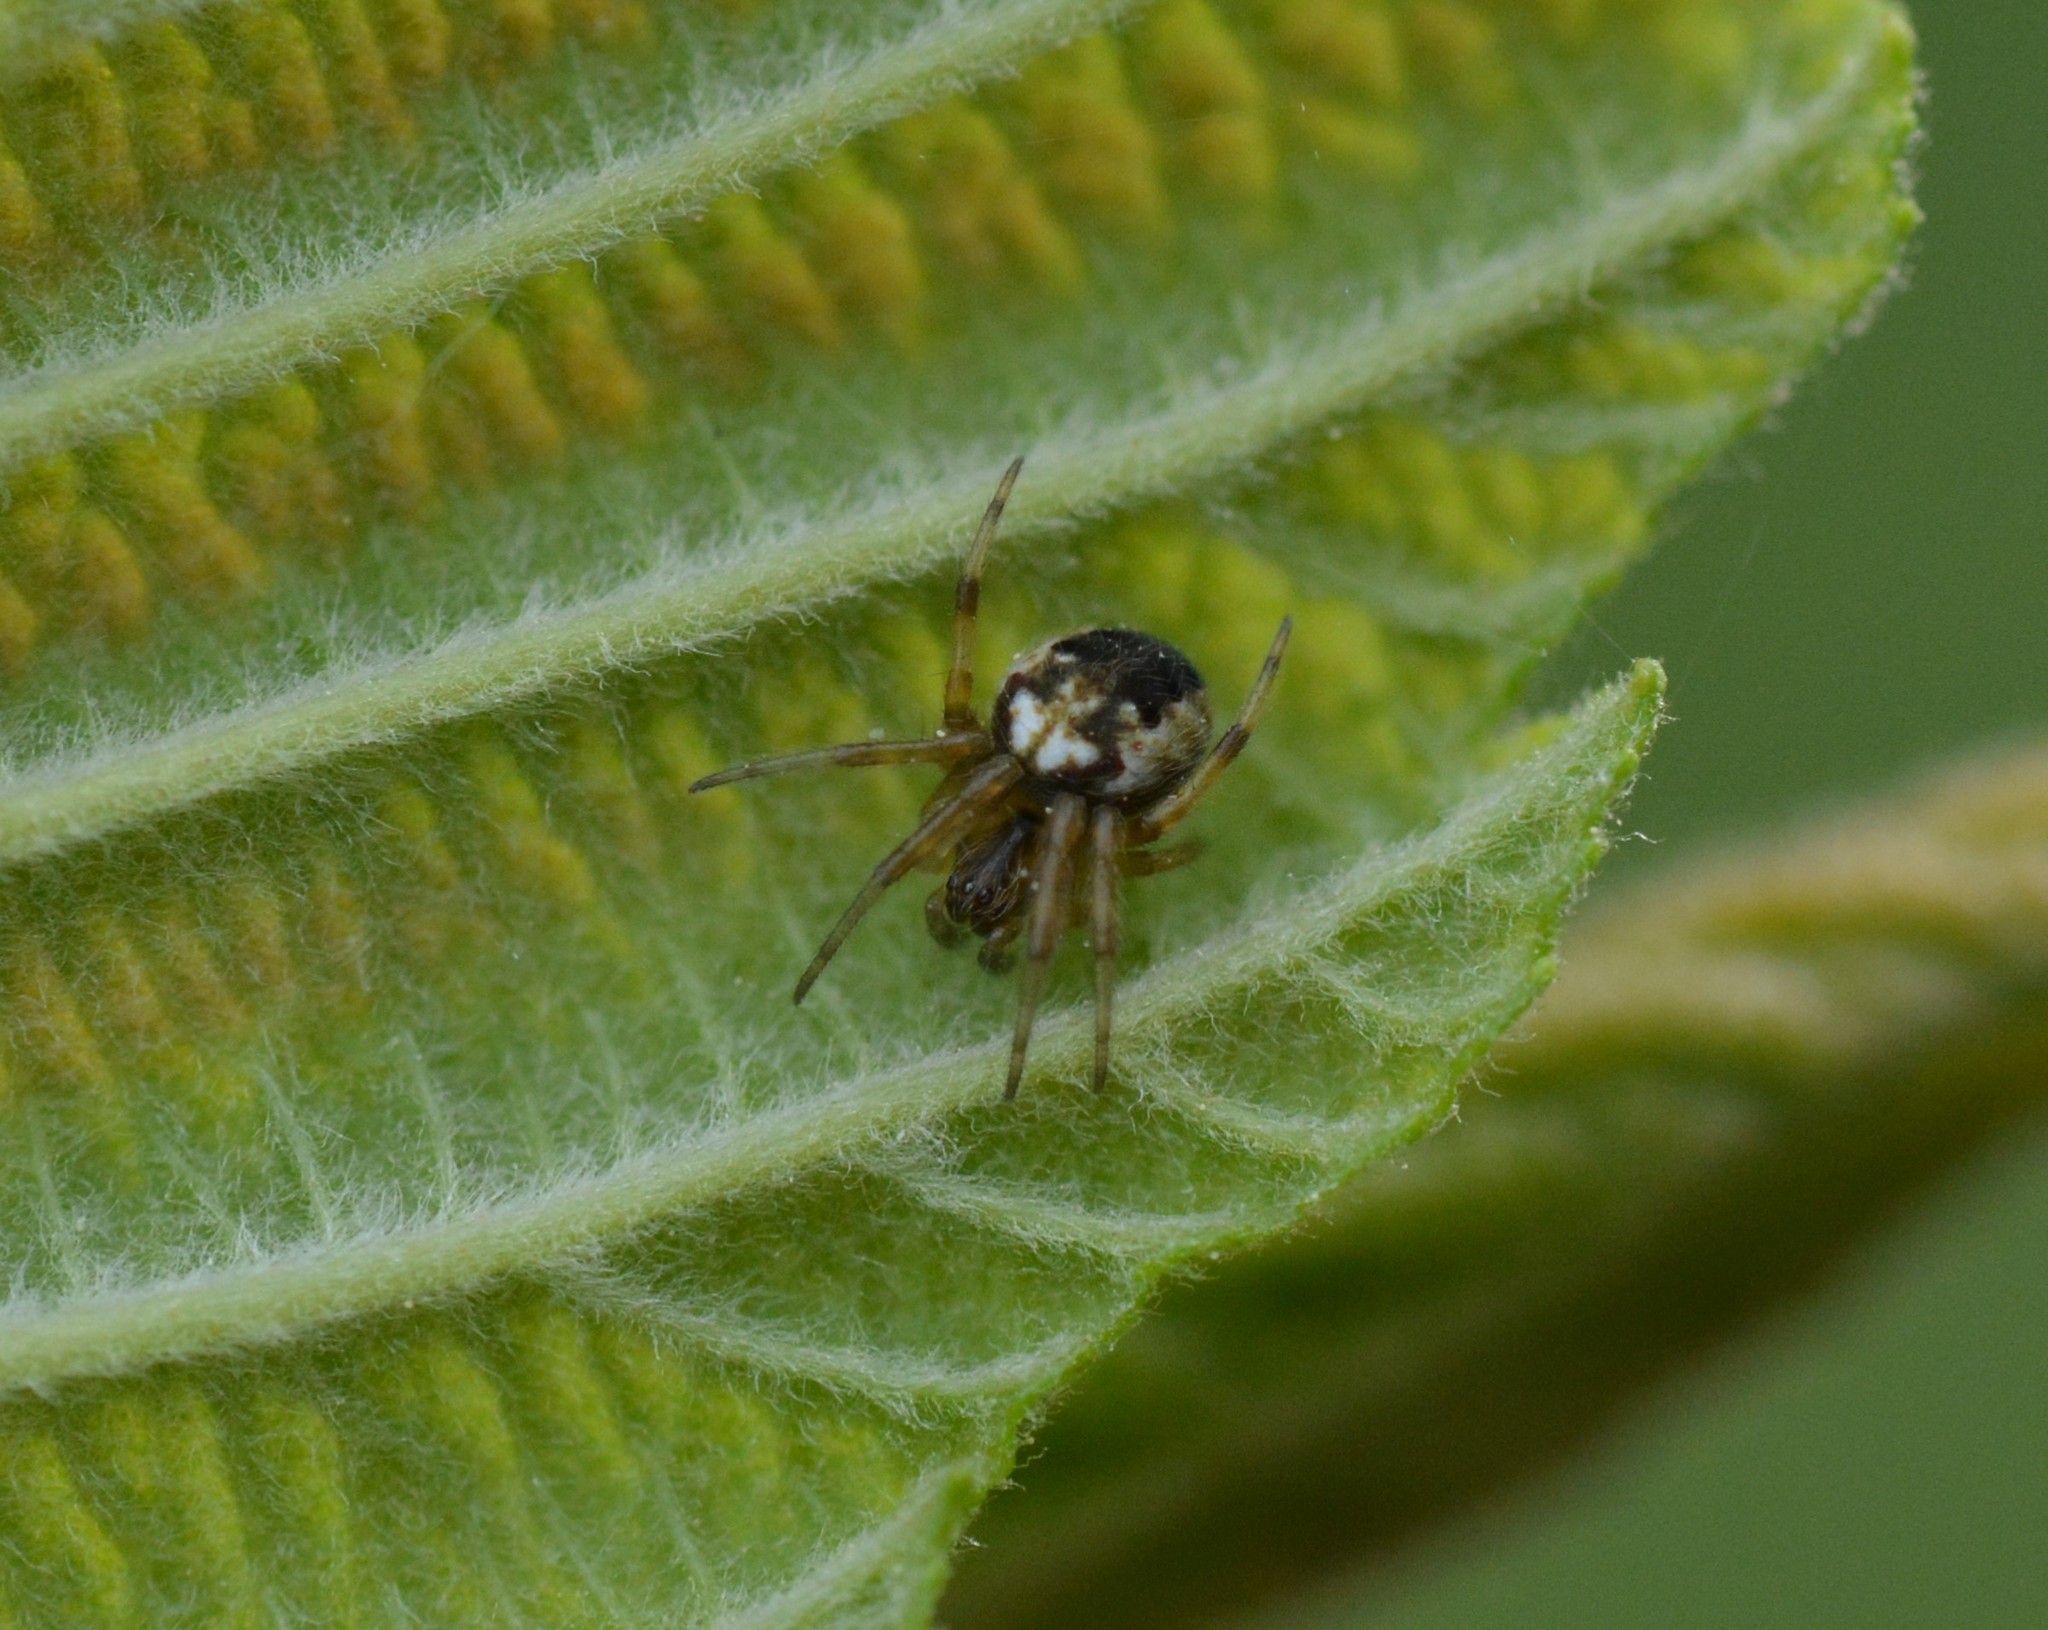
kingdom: Animalia
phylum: Arthropoda
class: Arachnida
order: Araneae
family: Araneidae
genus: Neoscona
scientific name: Neoscona arabesca
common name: Orb weavers
